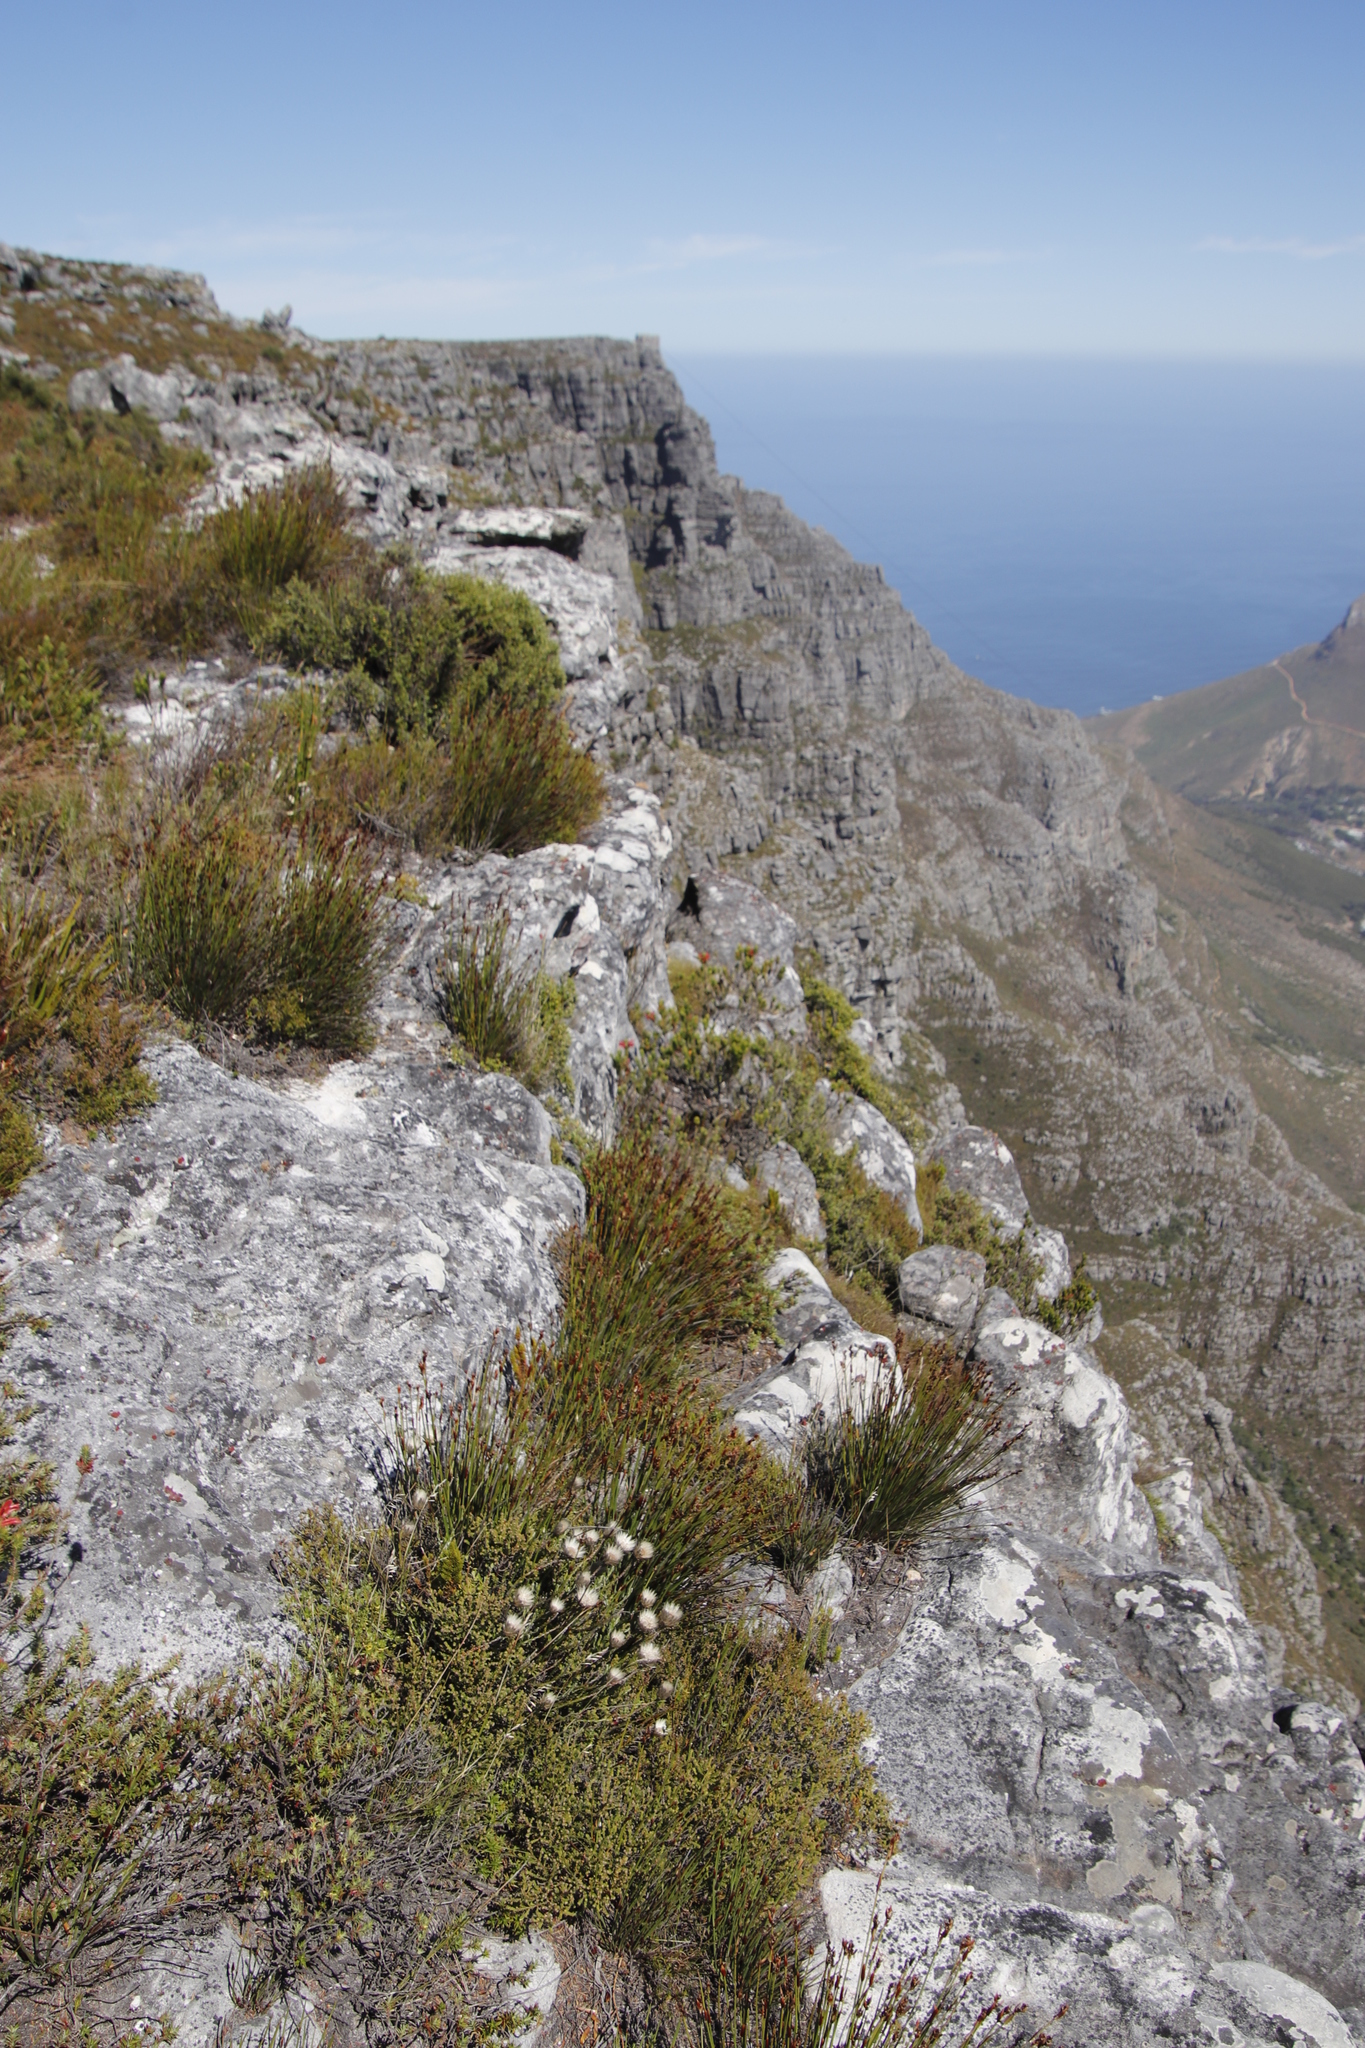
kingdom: Plantae
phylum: Tracheophyta
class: Magnoliopsida
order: Asterales
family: Asteraceae
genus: Edmondia
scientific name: Edmondia pinifolia
